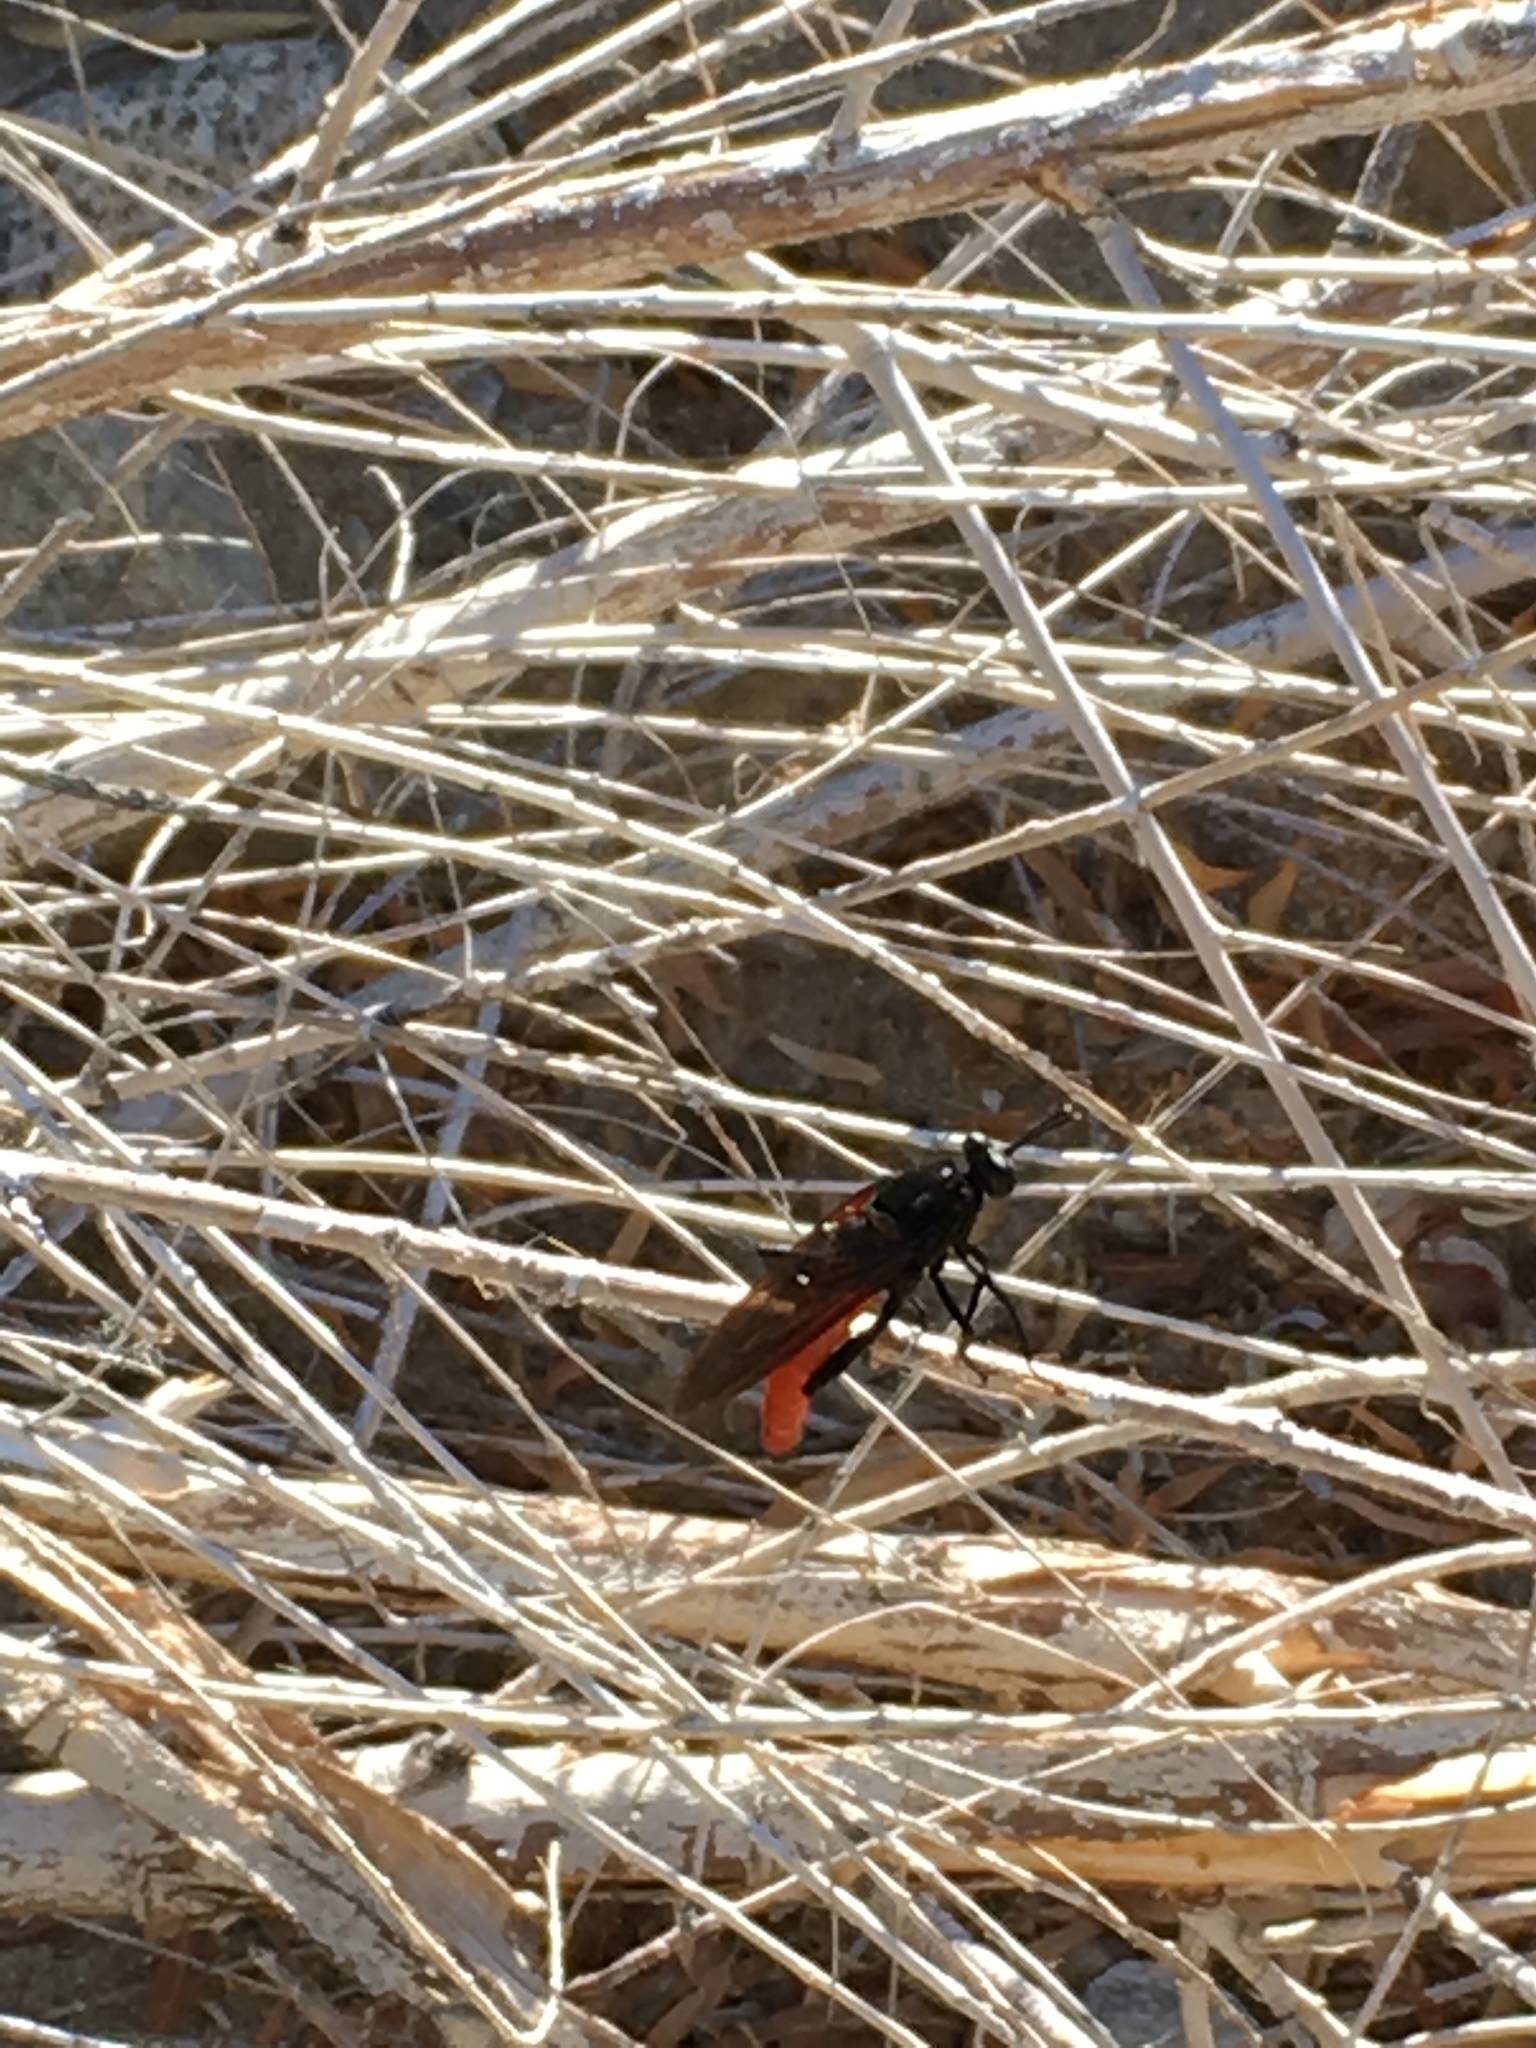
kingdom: Animalia
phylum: Arthropoda
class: Insecta
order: Diptera
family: Mydidae
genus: Mydas
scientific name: Mydas ventralis
